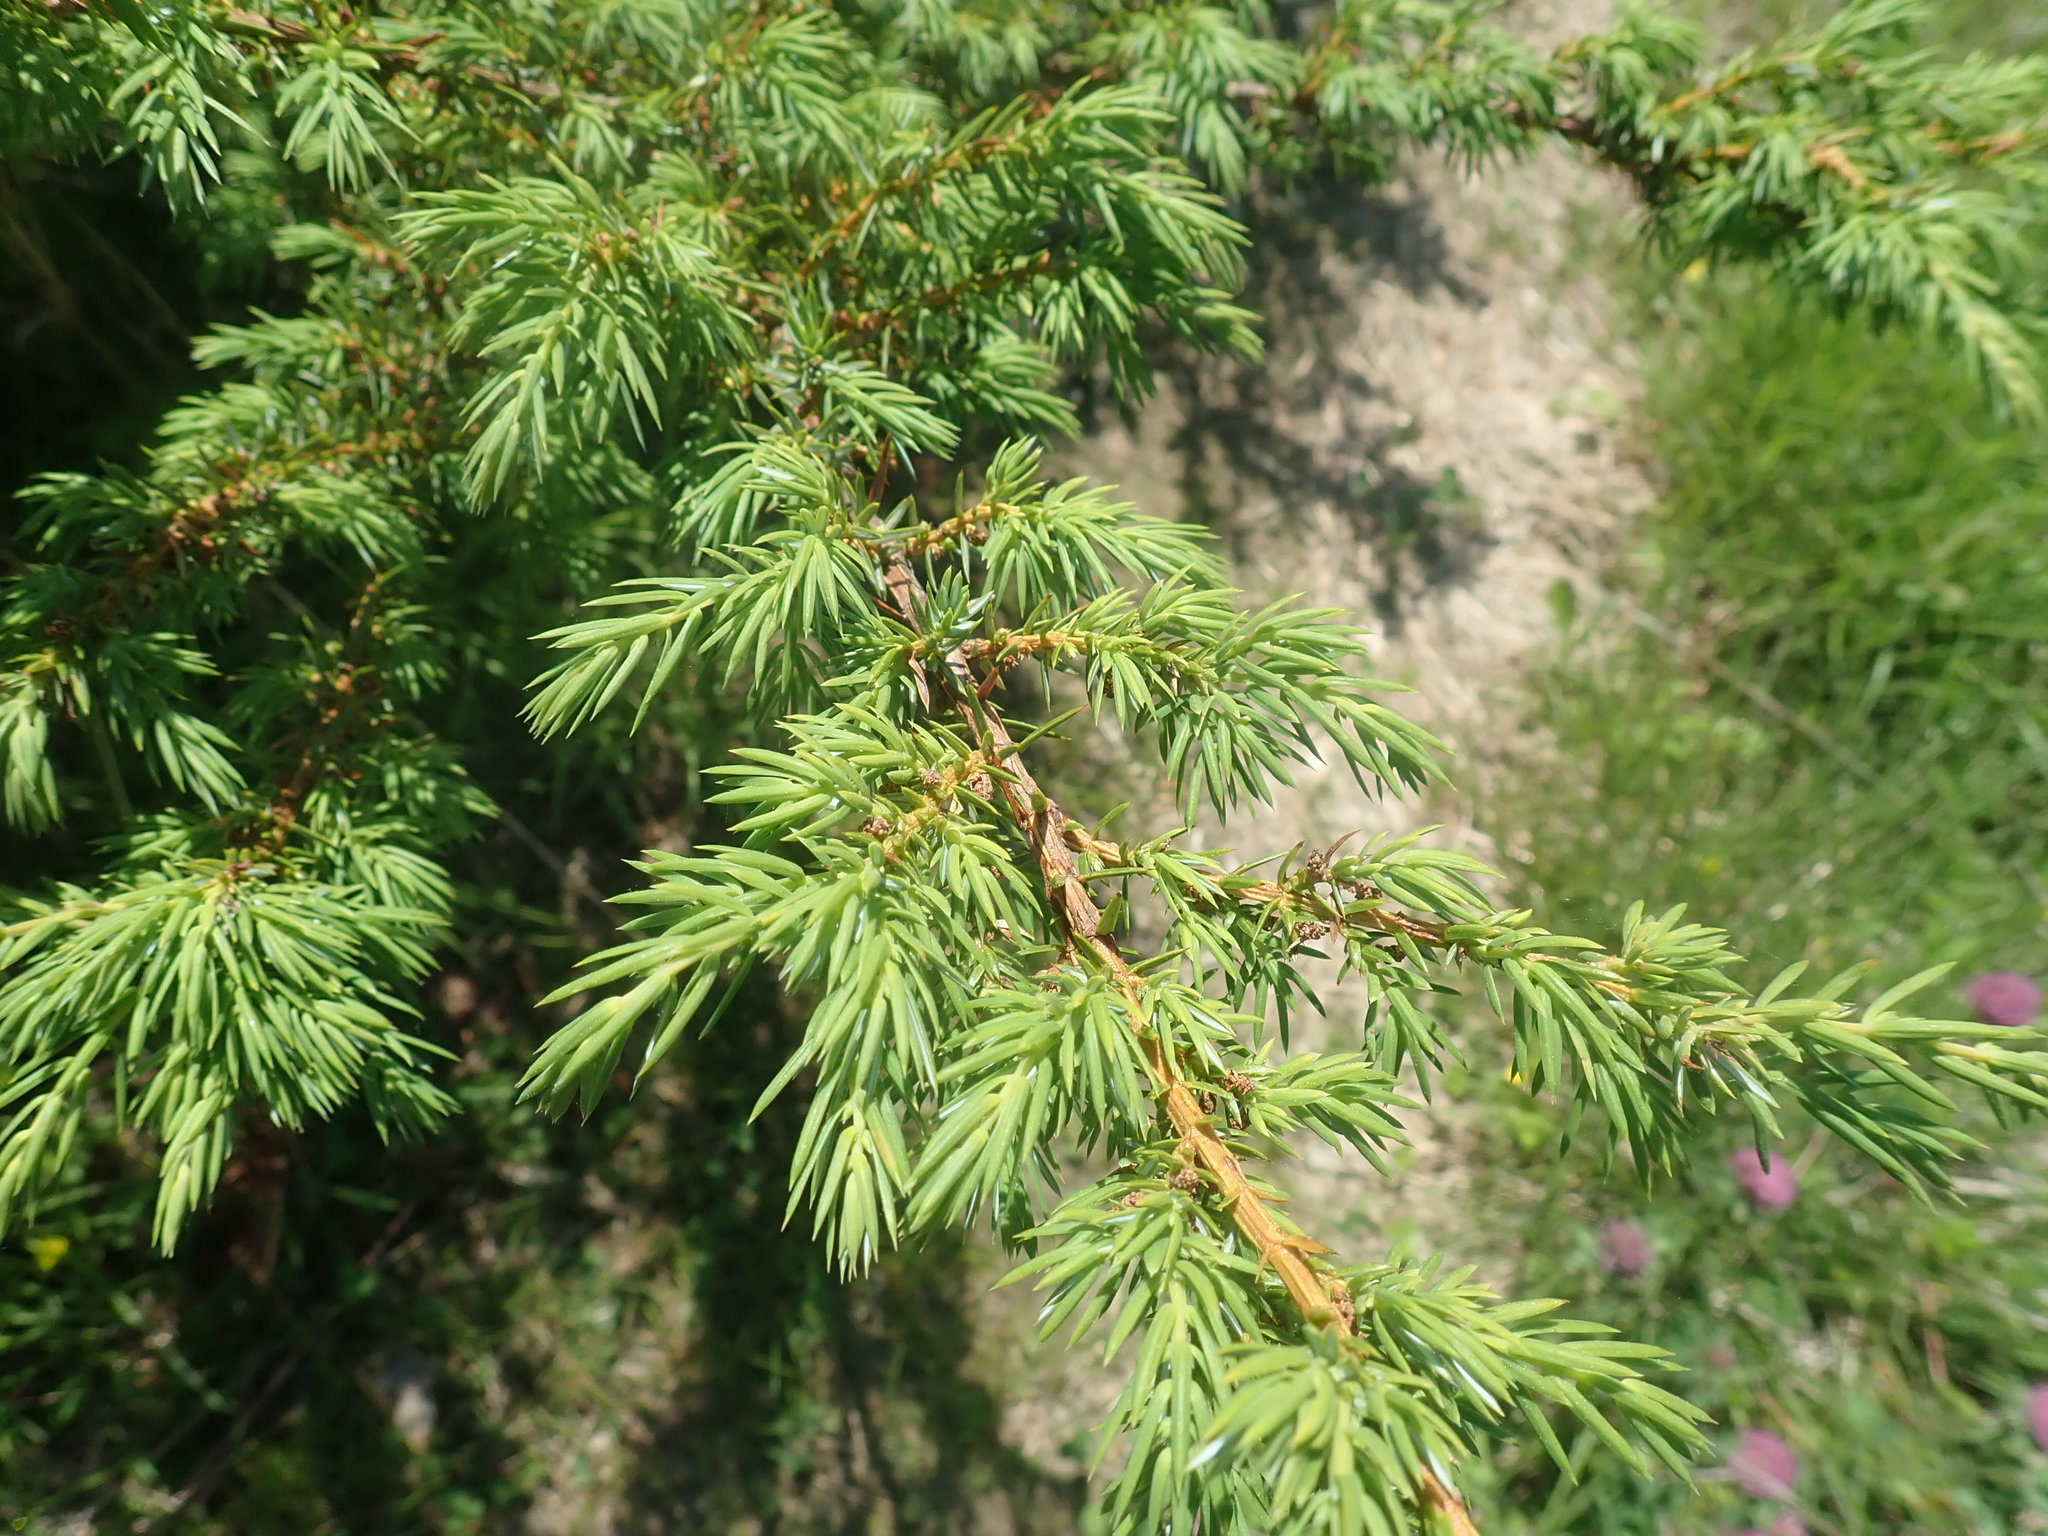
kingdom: Plantae
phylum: Tracheophyta
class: Pinopsida
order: Pinales
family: Cupressaceae
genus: Juniperus
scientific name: Juniperus communis
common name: Common juniper
